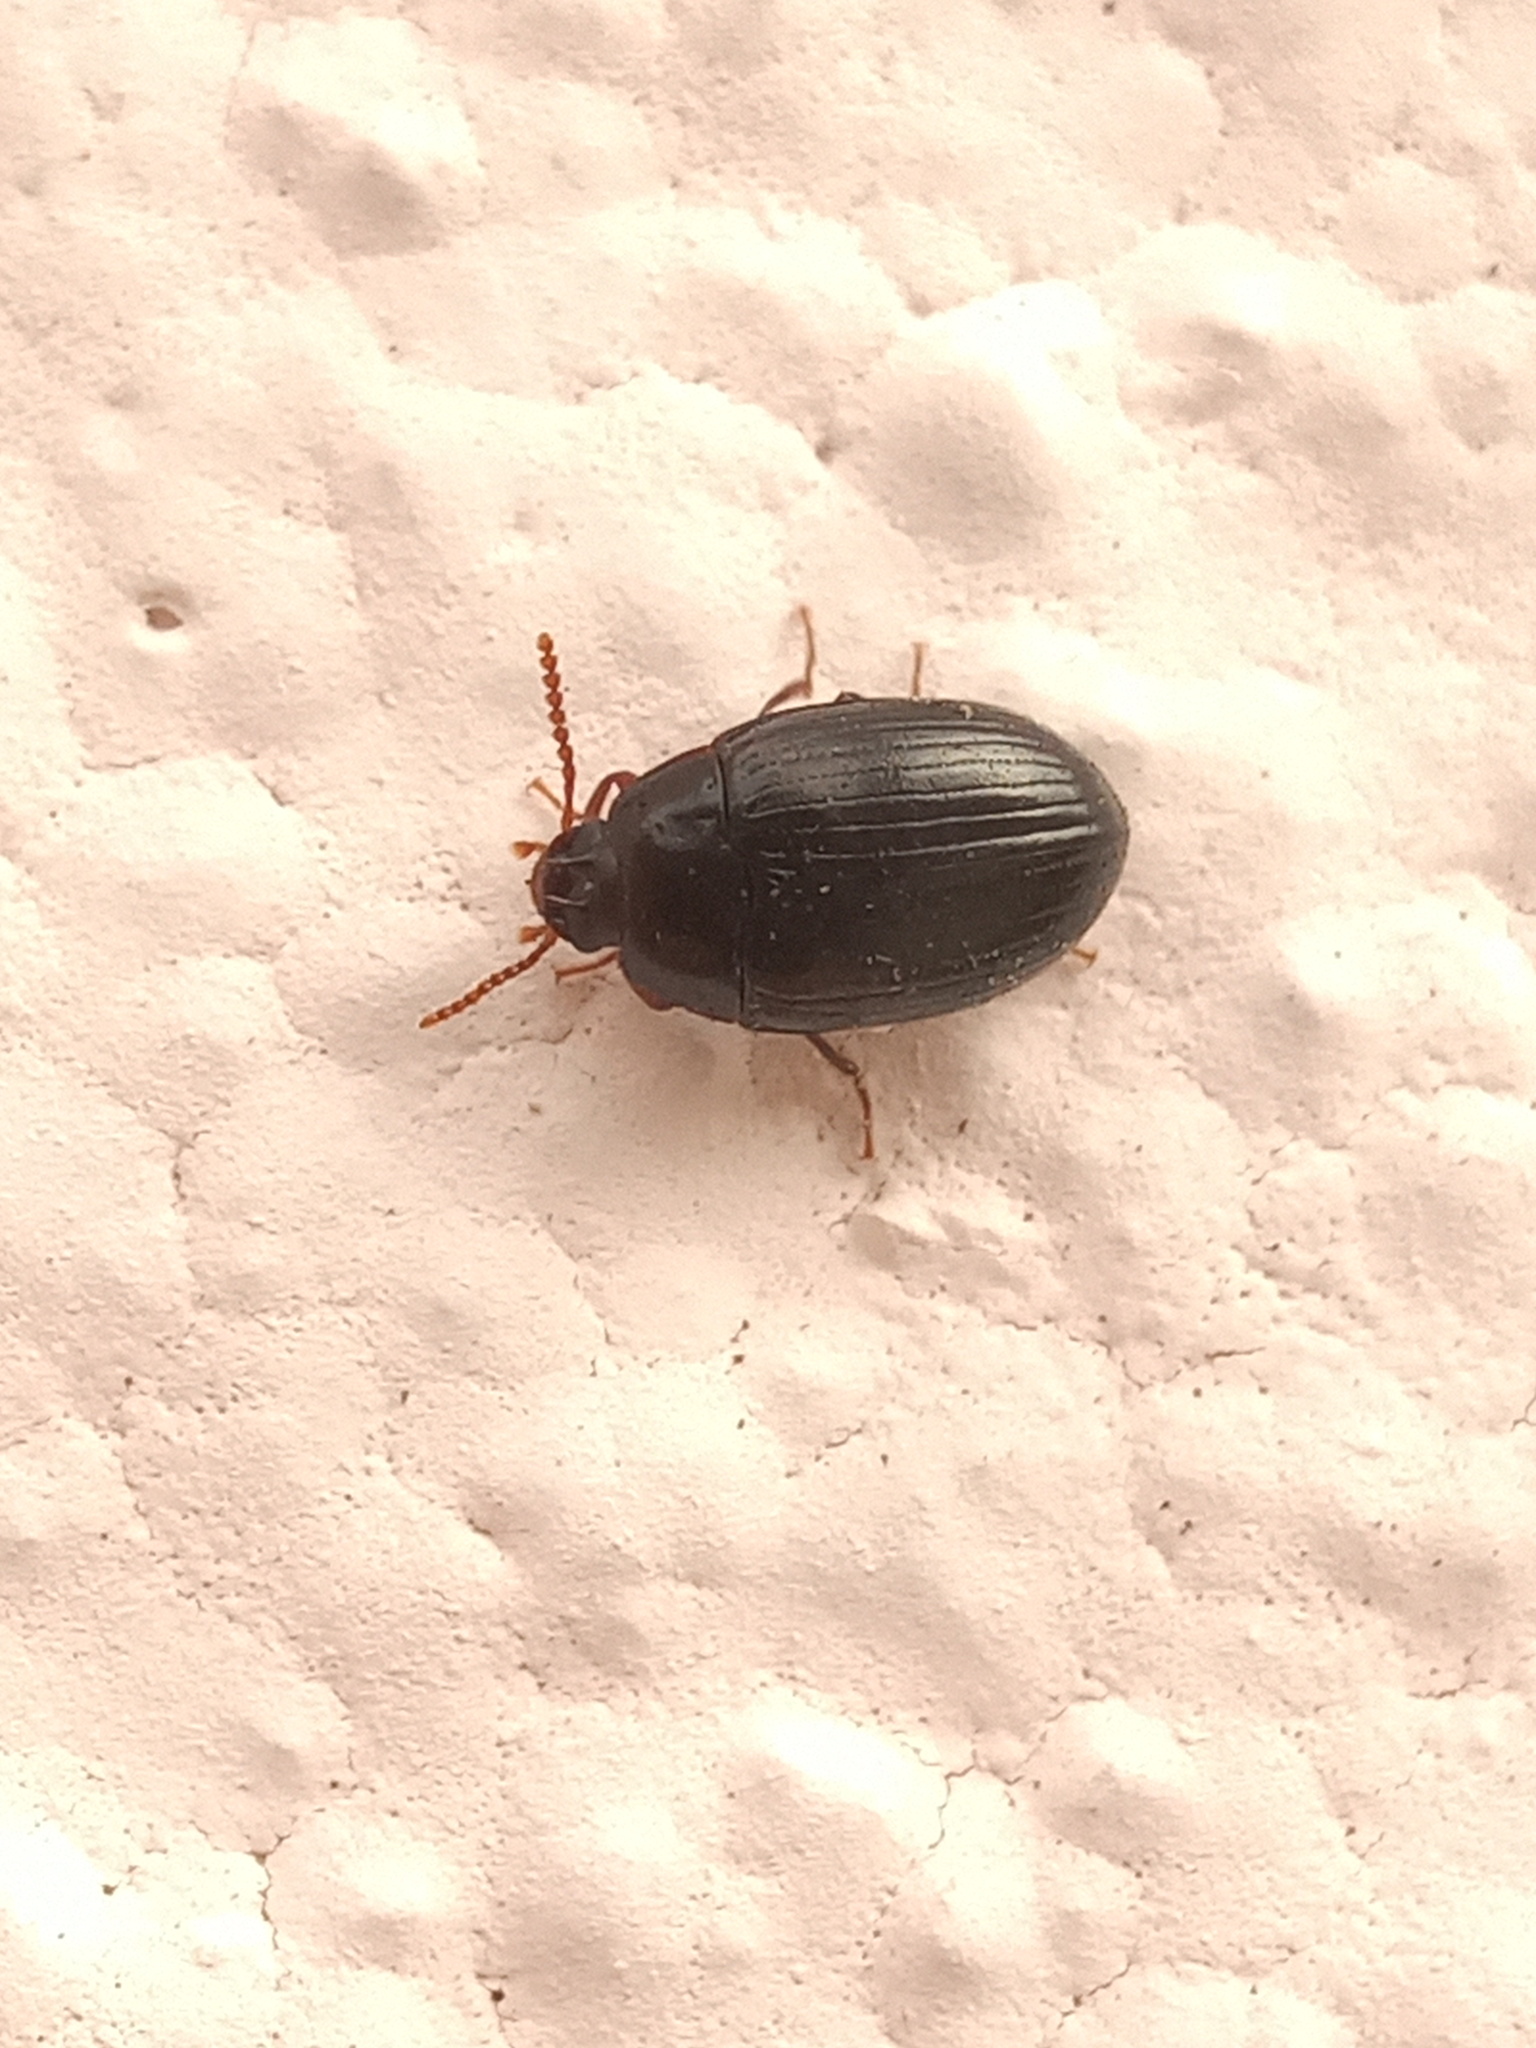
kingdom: Animalia
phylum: Arthropoda
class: Insecta
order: Coleoptera
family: Tenebrionidae
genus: Platydema
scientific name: Platydema excavata
